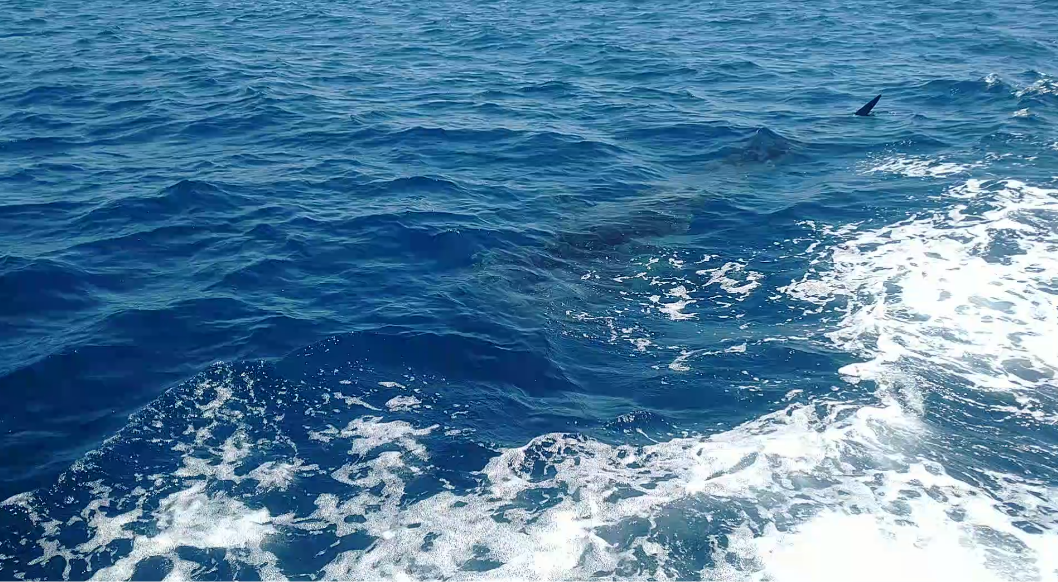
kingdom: Animalia
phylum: Chordata
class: Elasmobranchii
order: Orectolobiformes
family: Rhincodontidae
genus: Rhincodon
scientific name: Rhincodon typus
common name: Whale shark
